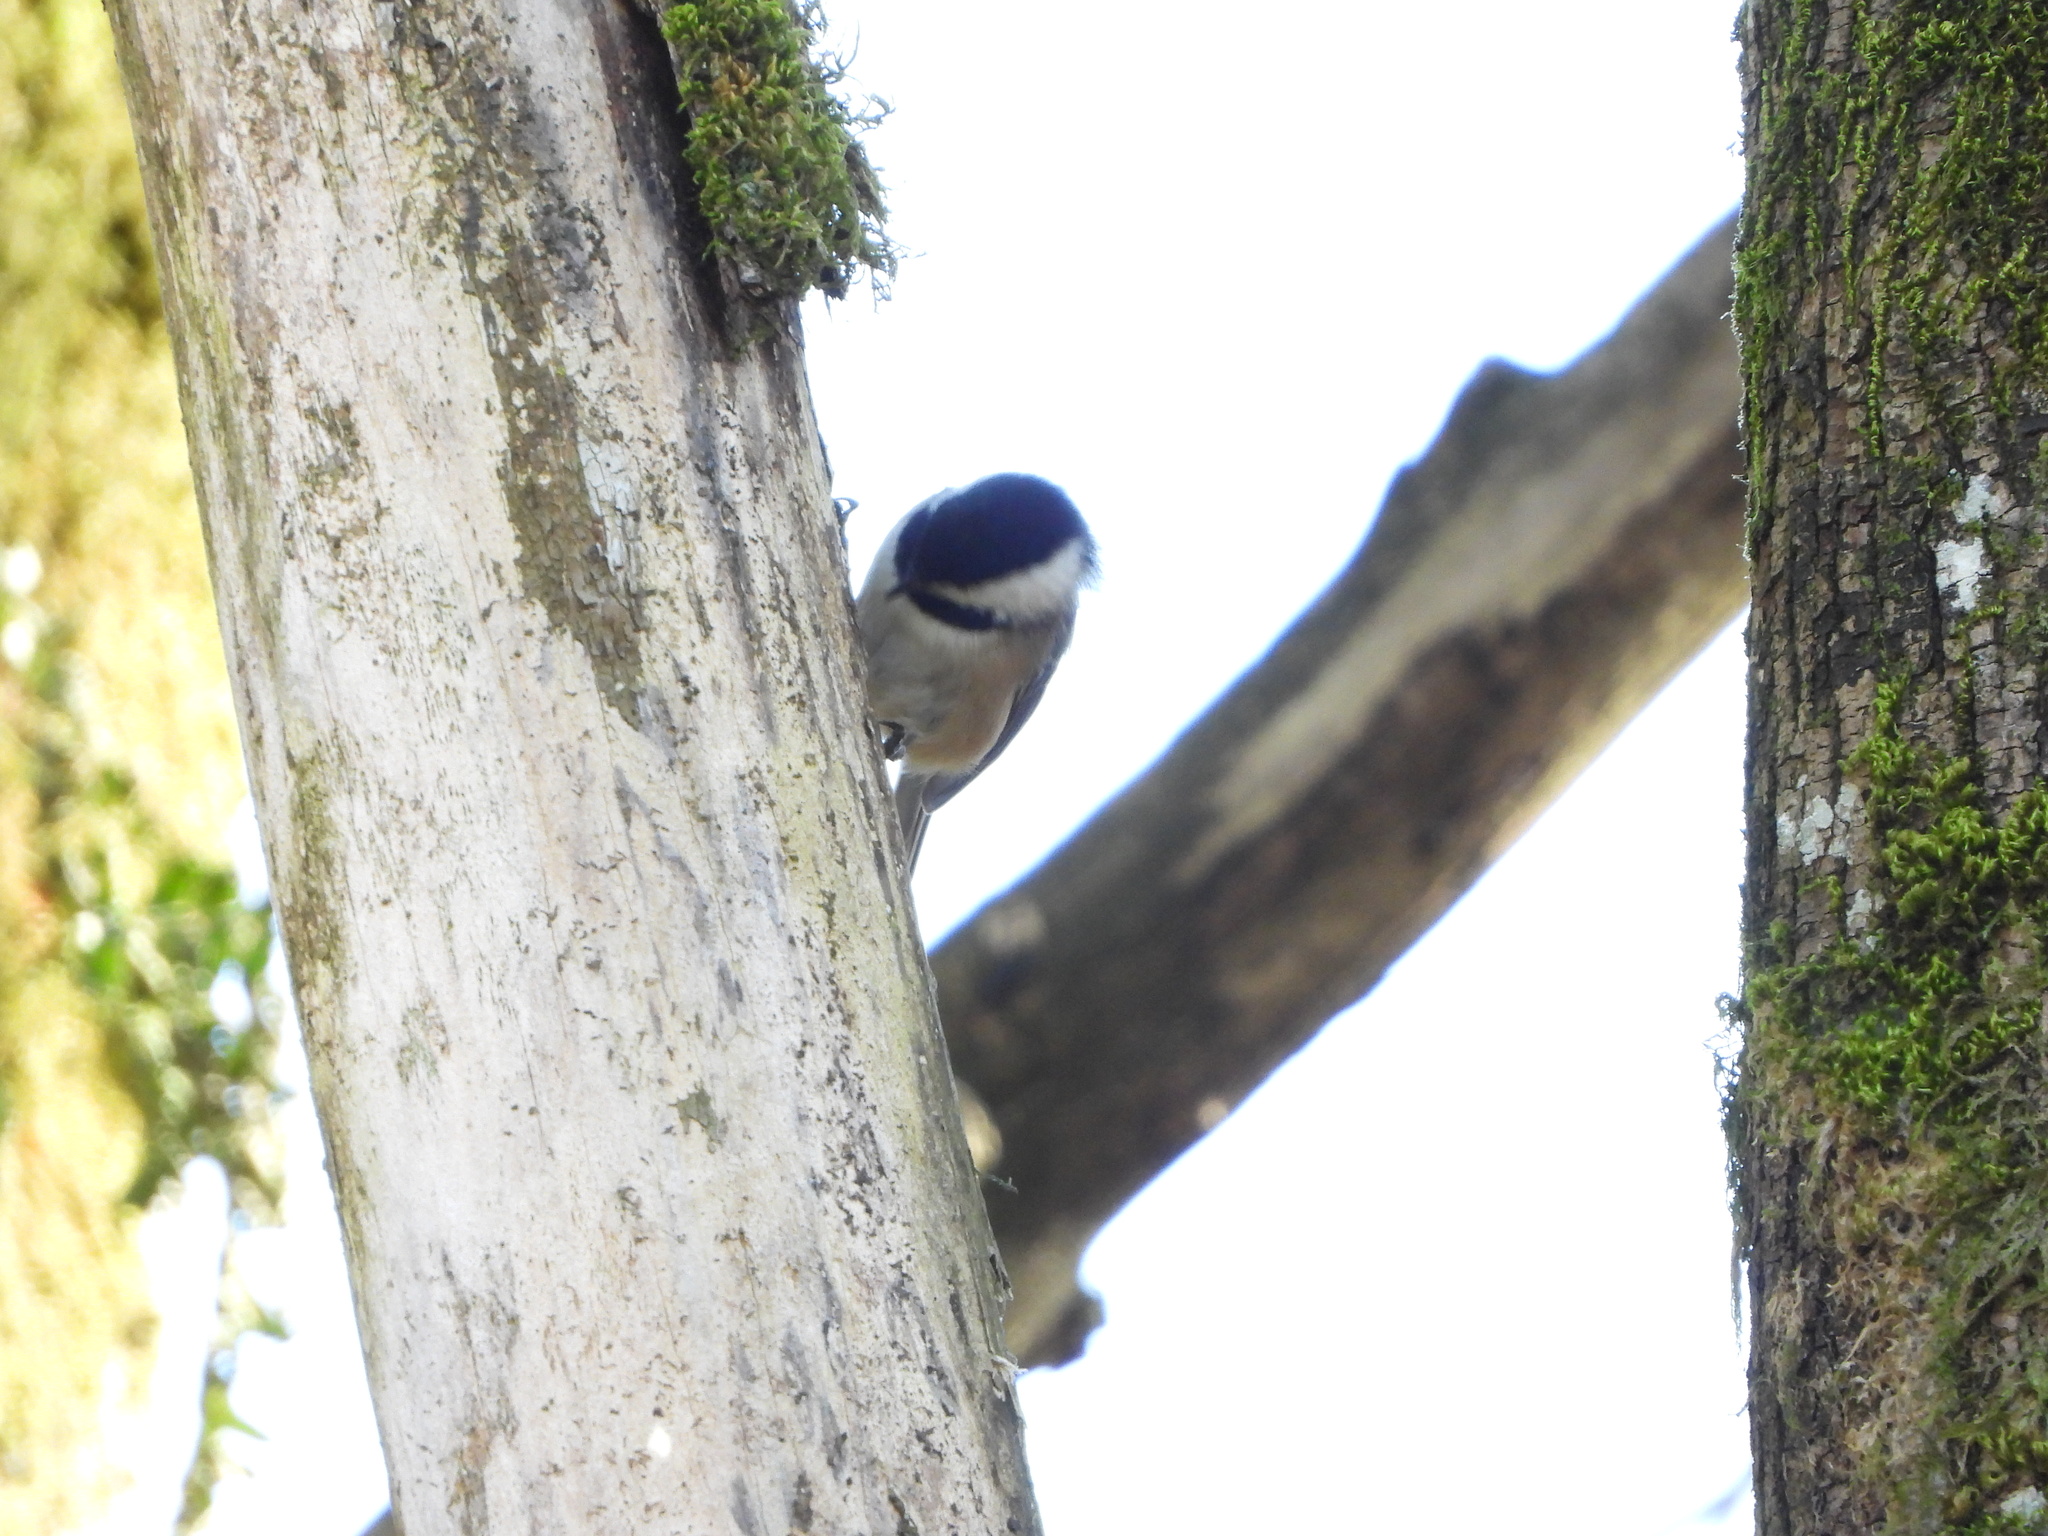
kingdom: Animalia
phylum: Chordata
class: Aves
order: Passeriformes
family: Paridae
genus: Poecile
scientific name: Poecile atricapillus
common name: Black-capped chickadee
